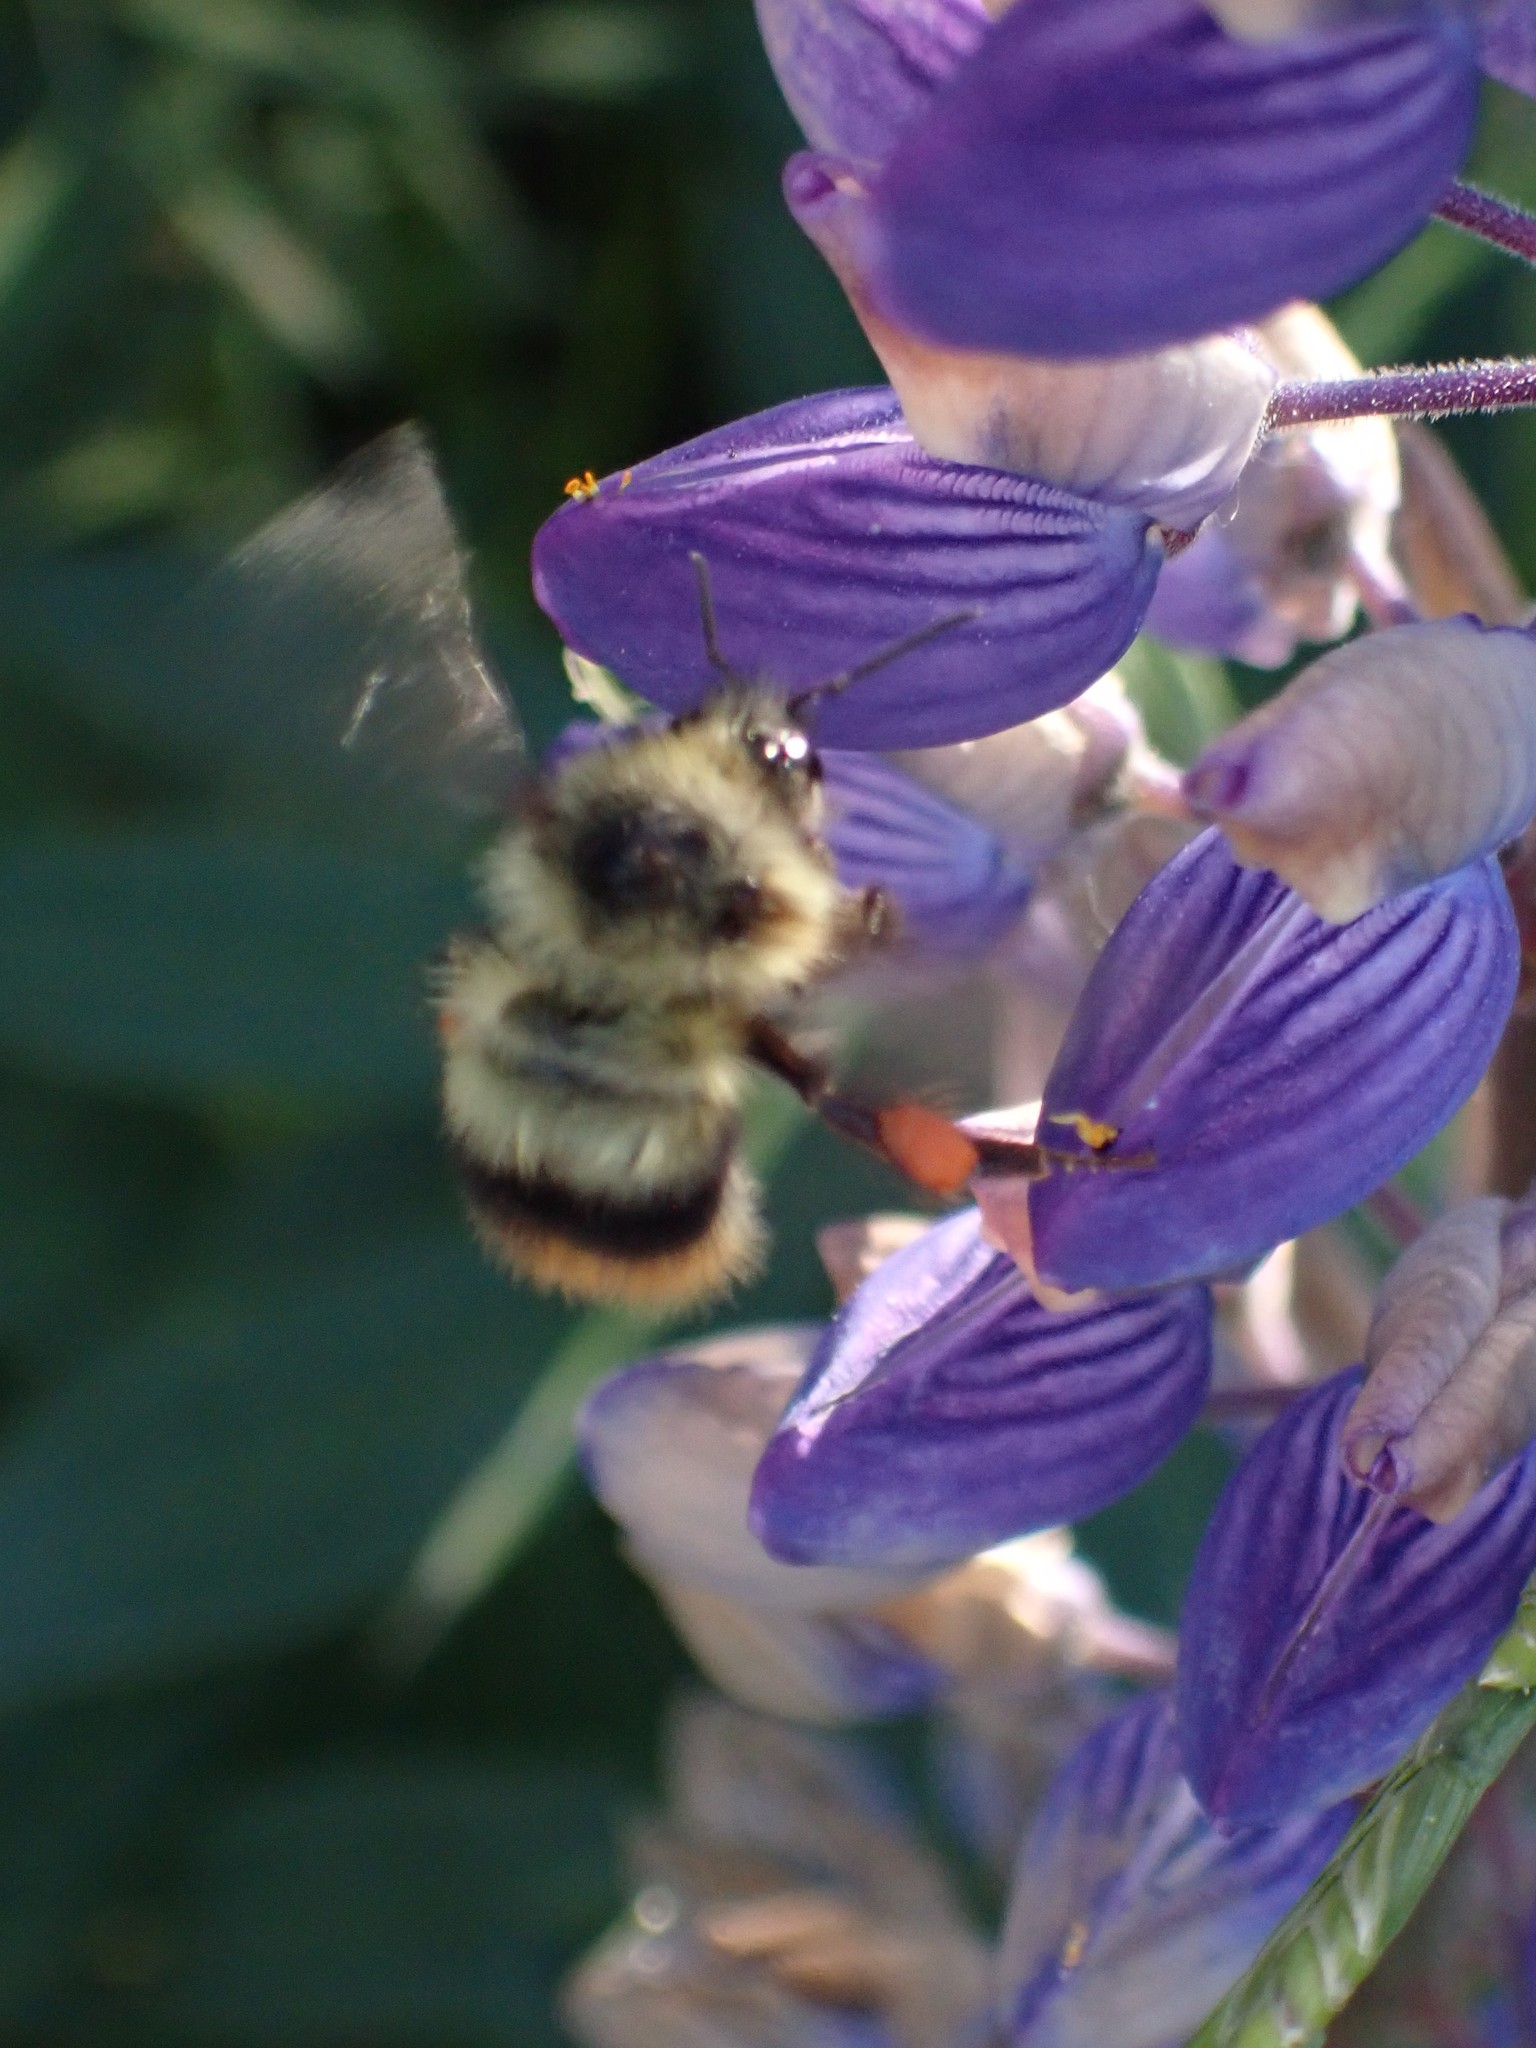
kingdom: Animalia
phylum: Arthropoda
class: Insecta
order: Hymenoptera
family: Apidae
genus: Bombus
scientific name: Bombus mixtus
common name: Fuzzy-horned bumble bee
